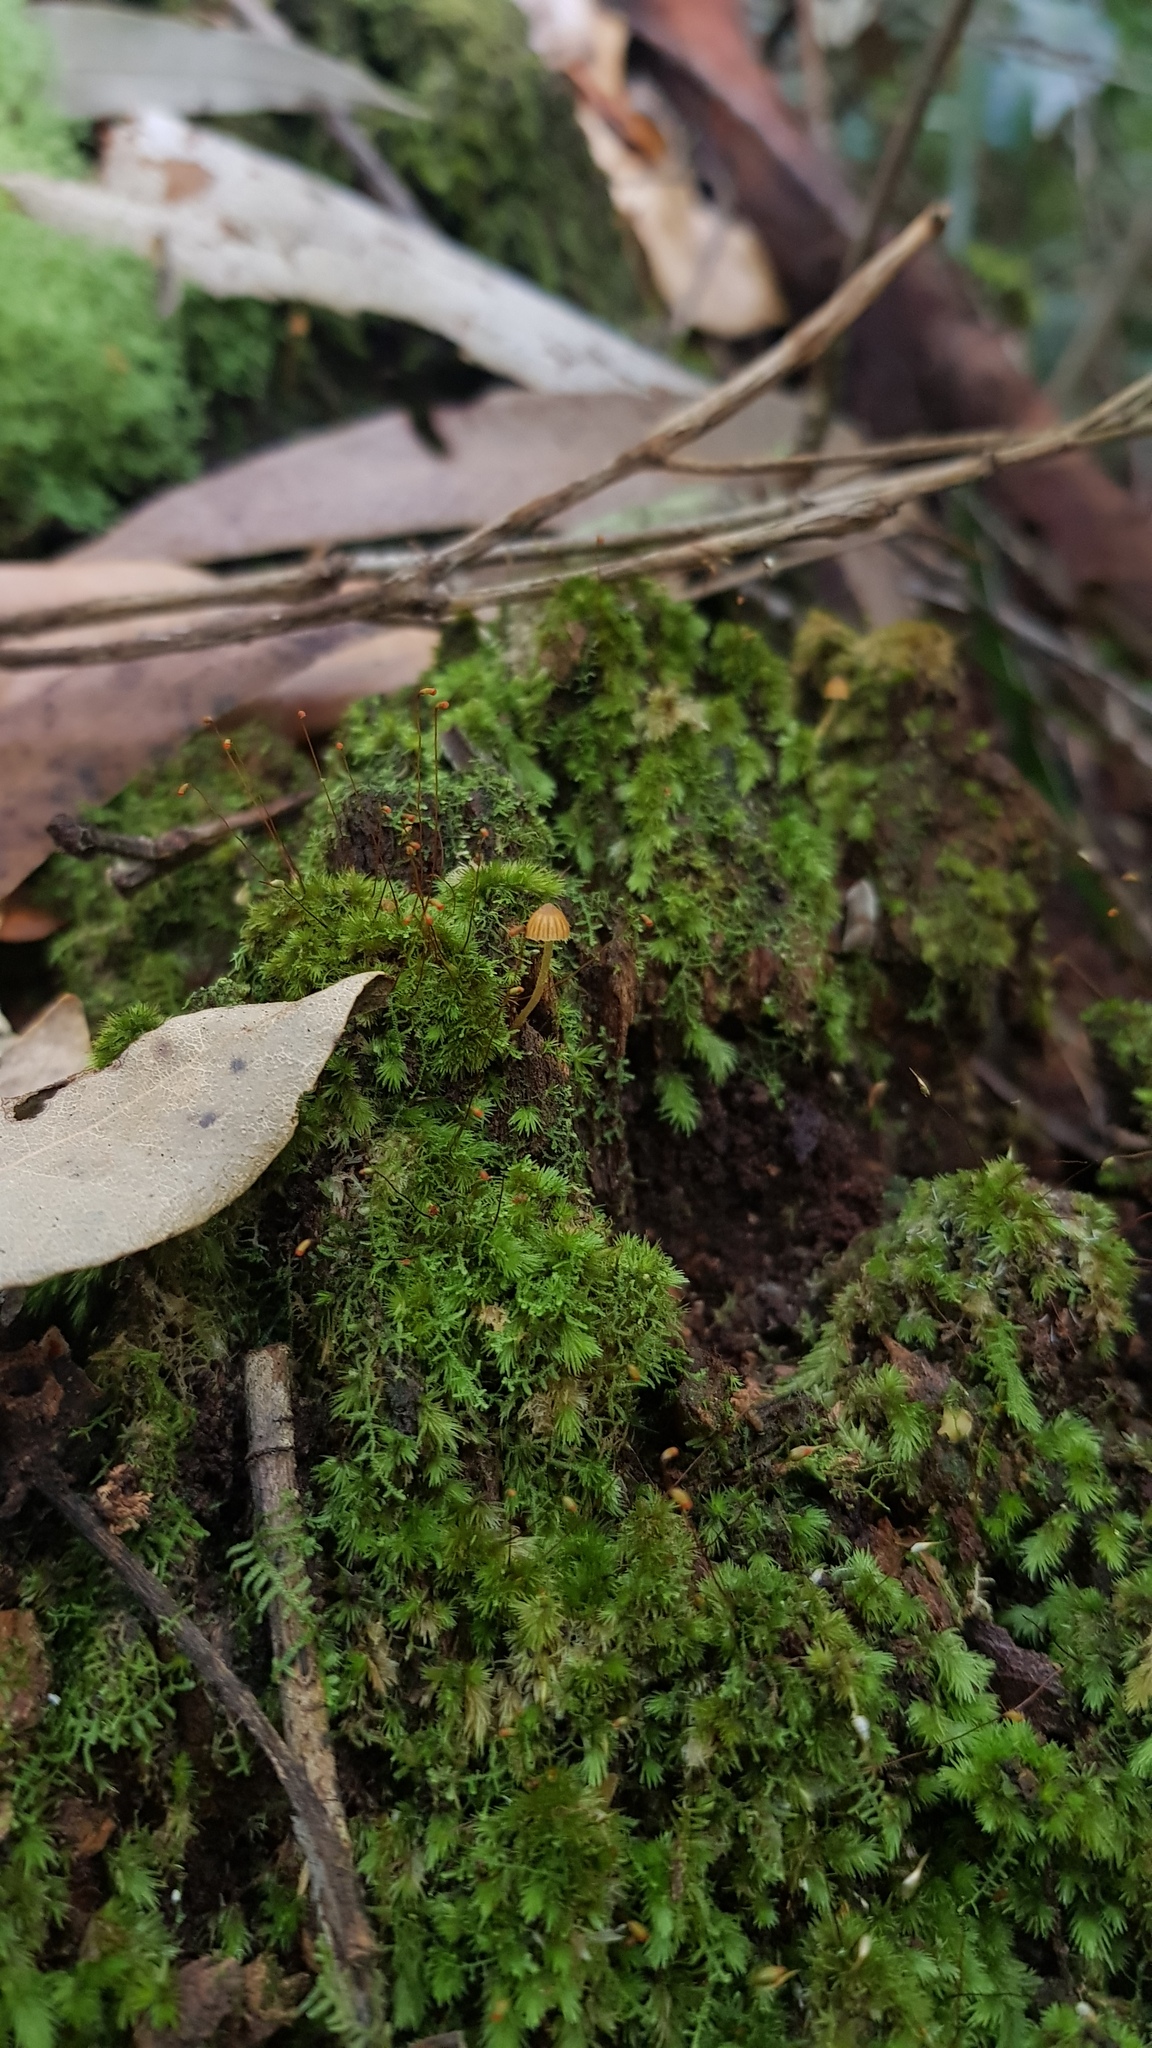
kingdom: Fungi
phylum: Basidiomycota
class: Agaricomycetes
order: Agaricales
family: Hymenogastraceae
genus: Galerina
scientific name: Galerina hypnorum
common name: Moss bell
